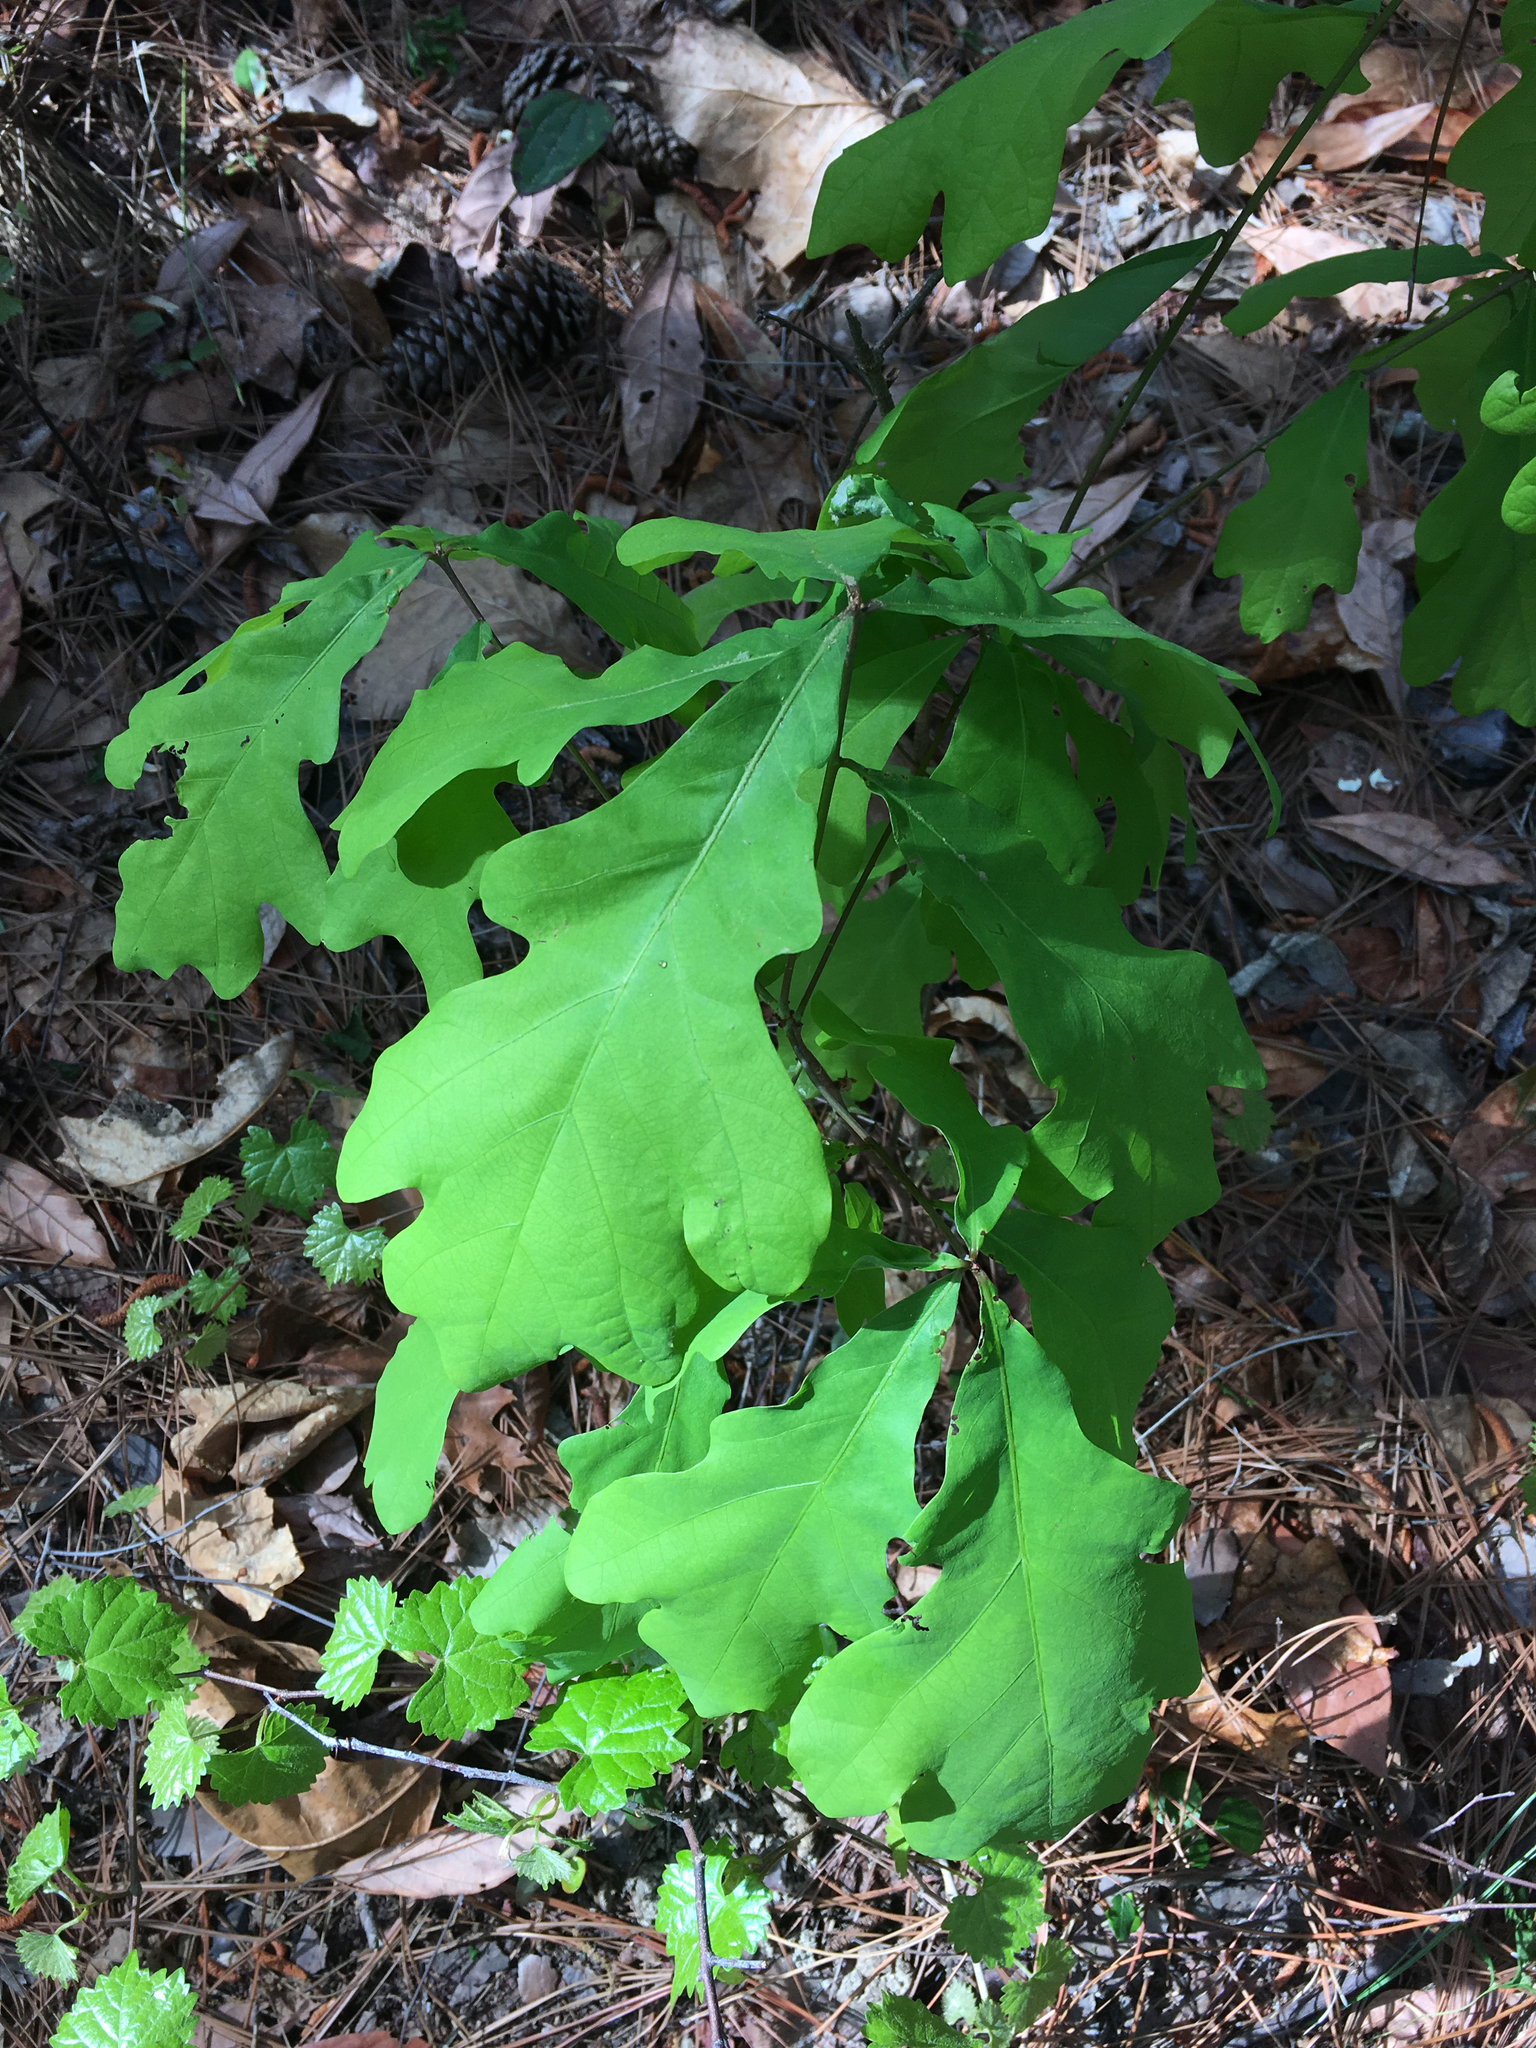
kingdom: Plantae
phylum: Tracheophyta
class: Magnoliopsida
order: Fagales
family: Fagaceae
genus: Quercus
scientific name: Quercus alba
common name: White oak
